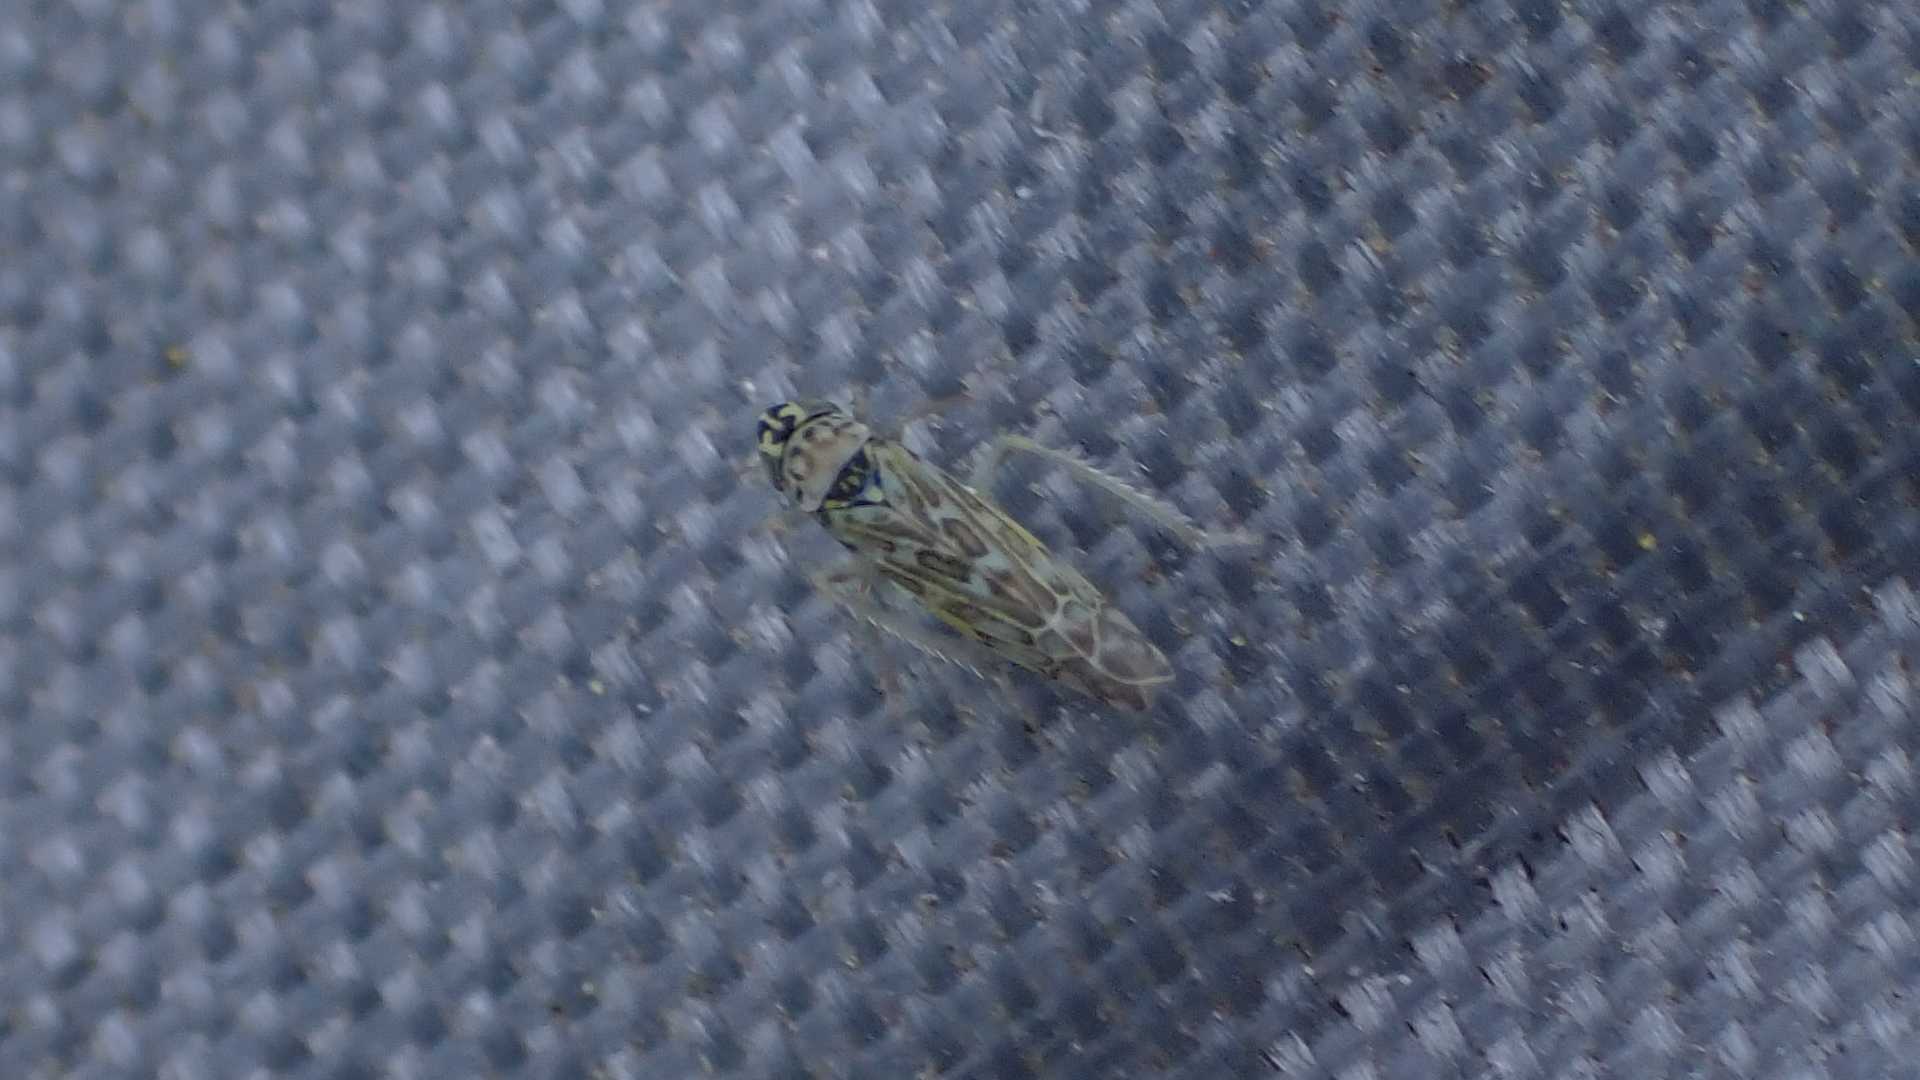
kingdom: Animalia
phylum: Arthropoda
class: Insecta
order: Hemiptera
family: Cicadellidae
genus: Eupteryx
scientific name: Eupteryx decemnotata
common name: Ligurian leafhopper
